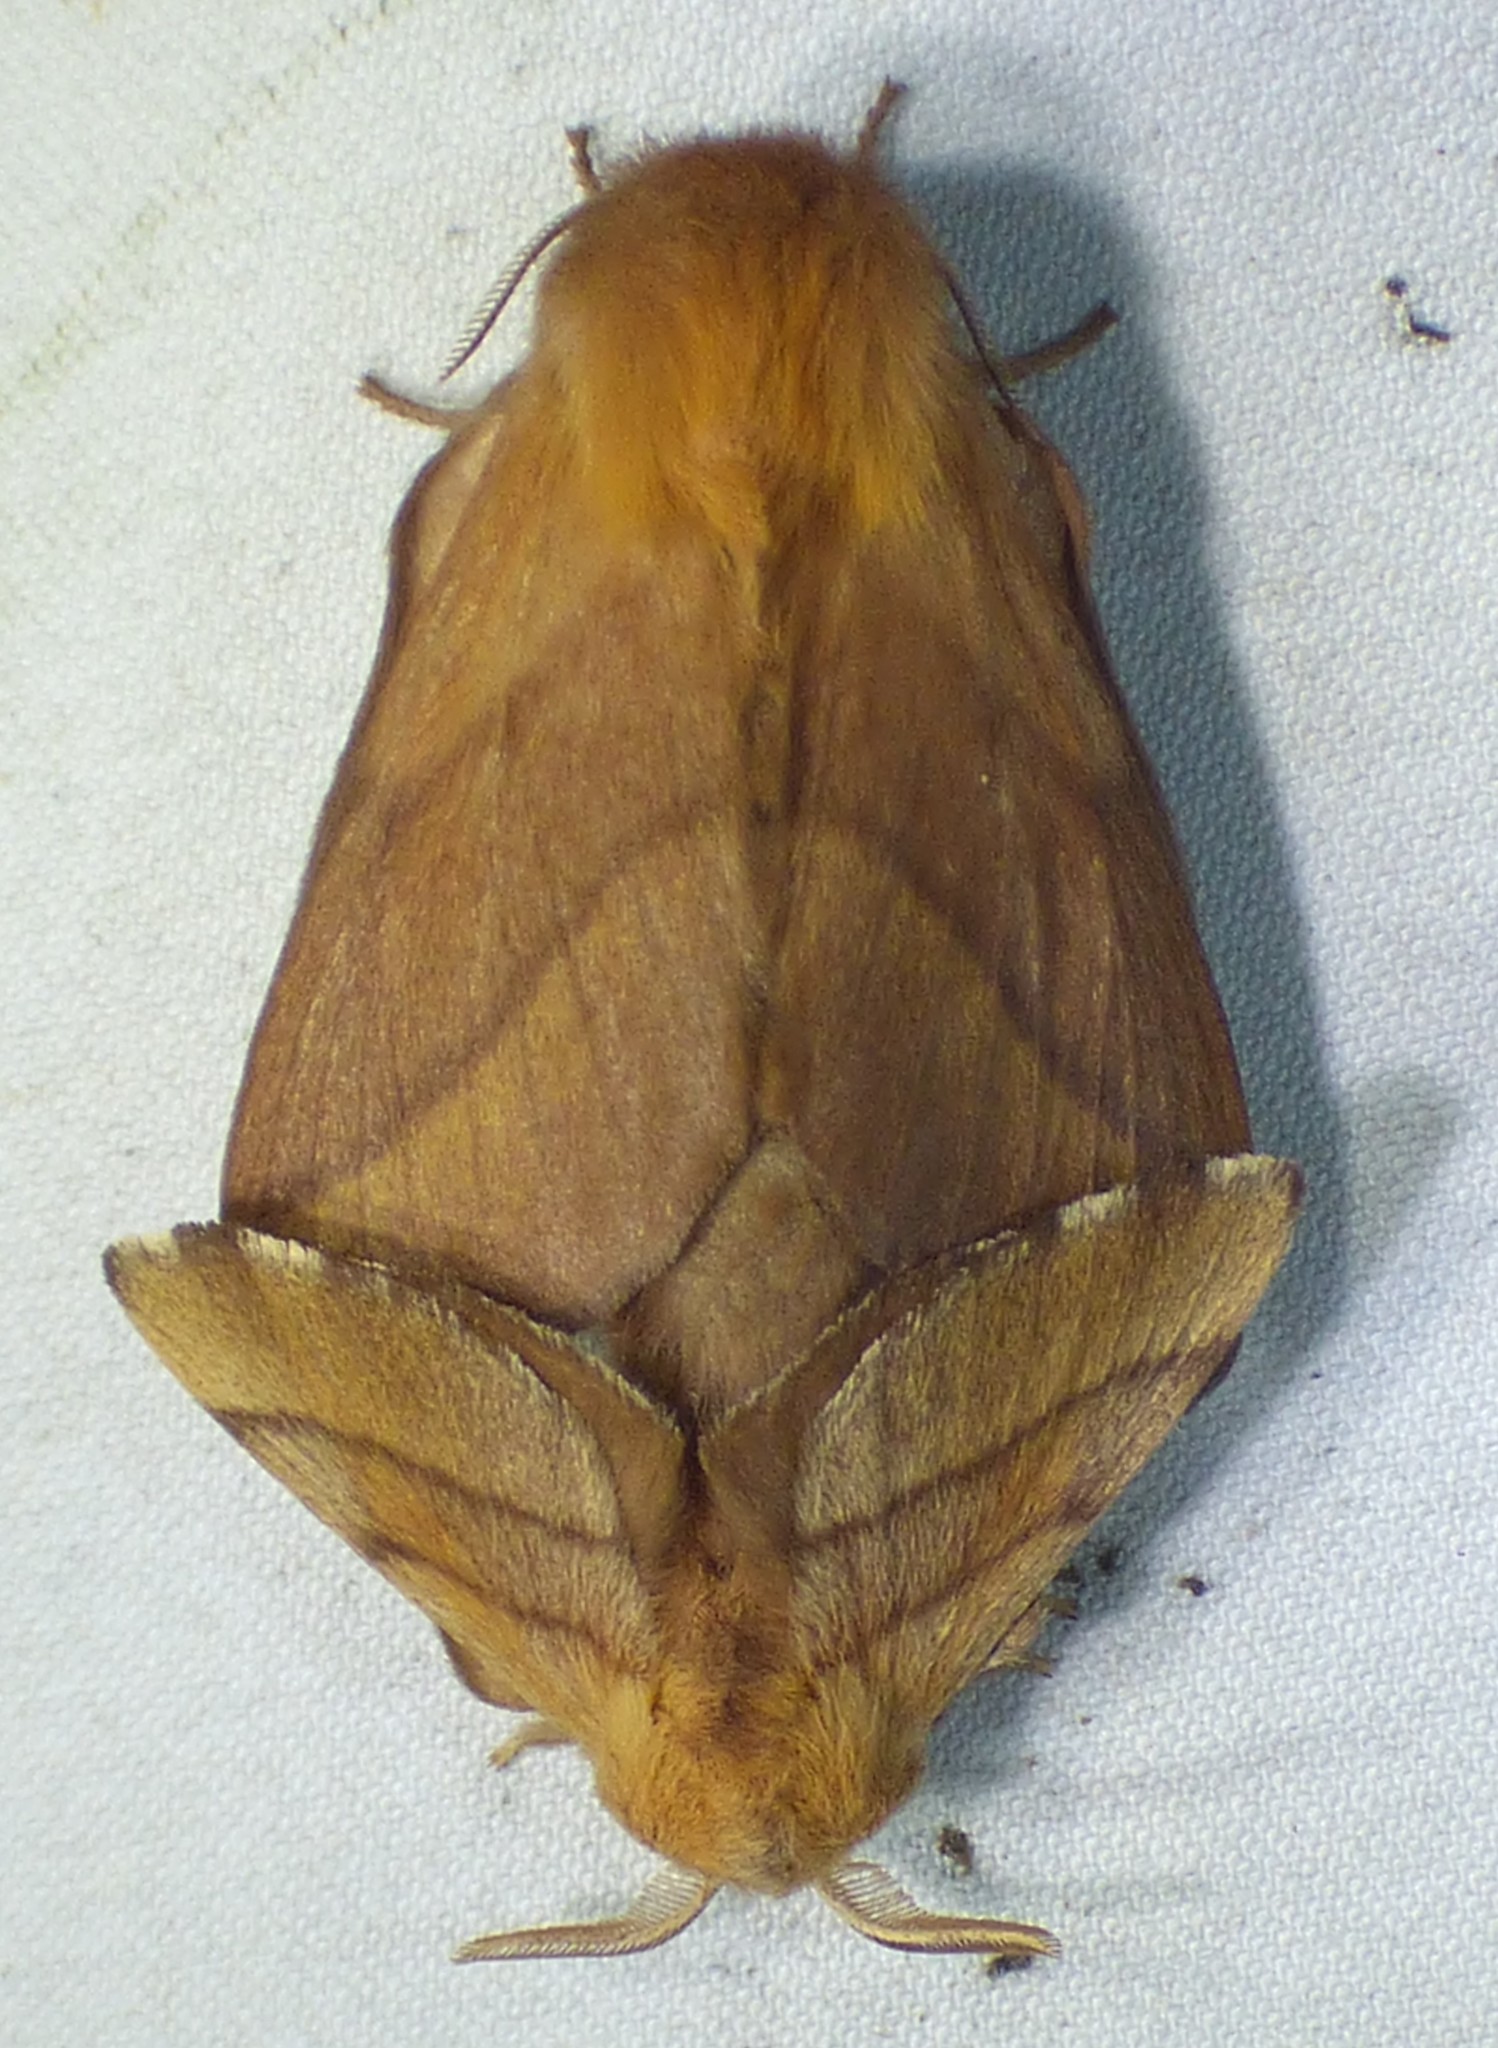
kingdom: Animalia
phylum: Arthropoda
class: Insecta
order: Lepidoptera
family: Lasiocampidae
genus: Malacosoma
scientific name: Malacosoma disstria
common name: Forest tent caterpillar
